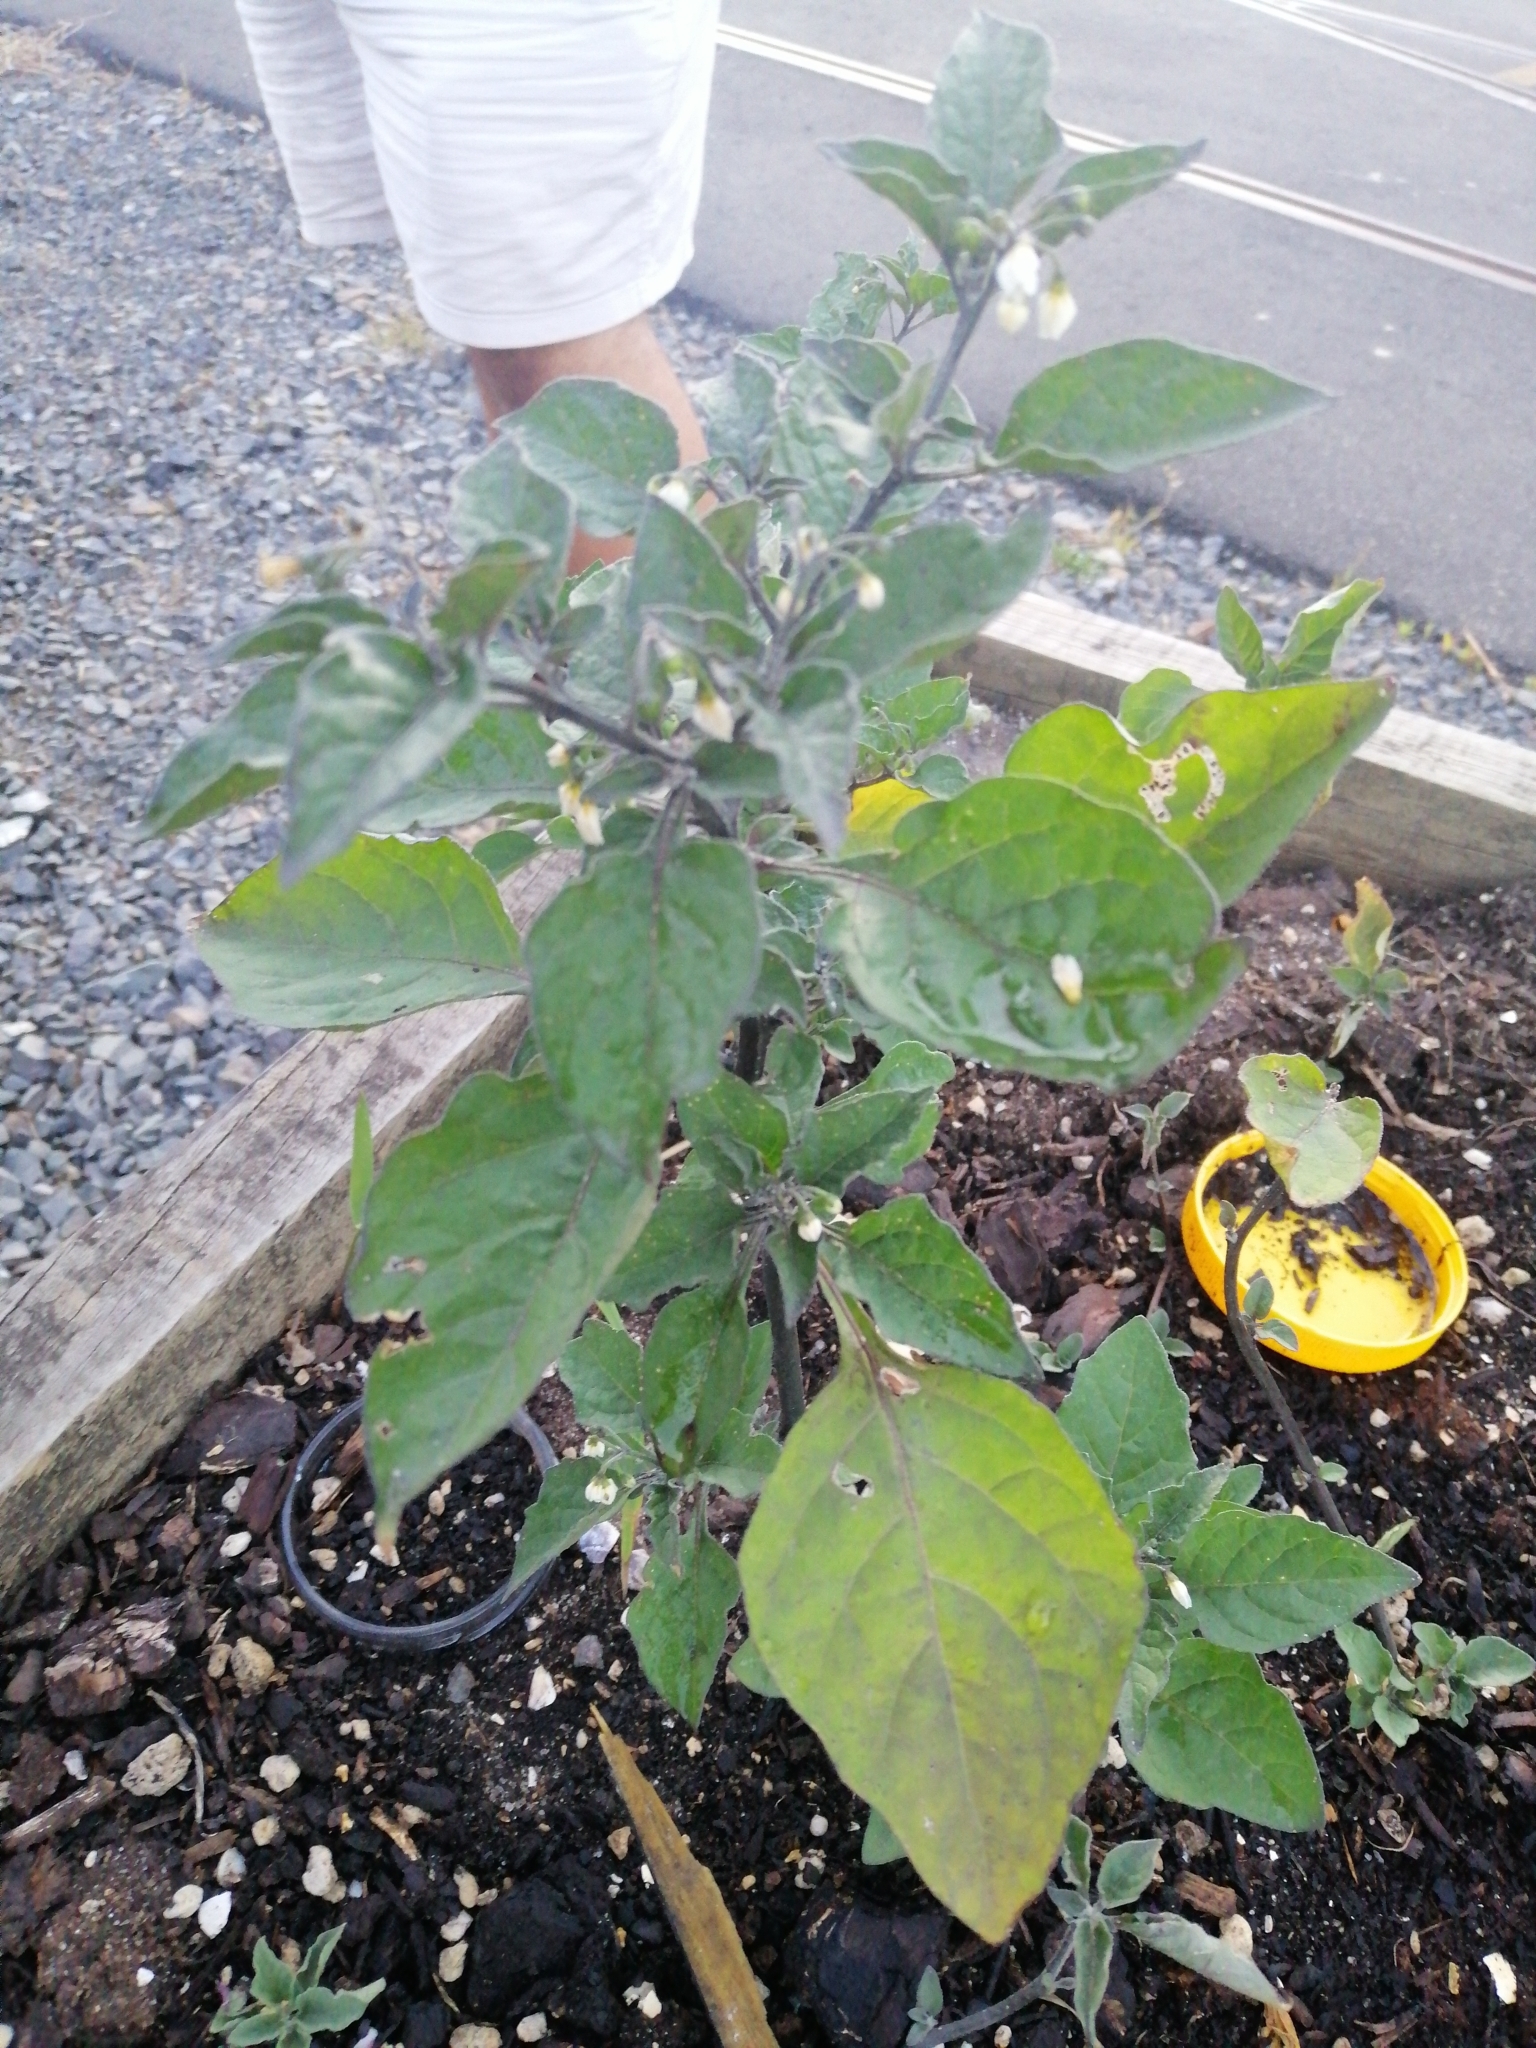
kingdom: Plantae
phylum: Tracheophyta
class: Magnoliopsida
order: Solanales
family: Solanaceae
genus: Solanum
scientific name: Solanum nigrum
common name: Black nightshade
